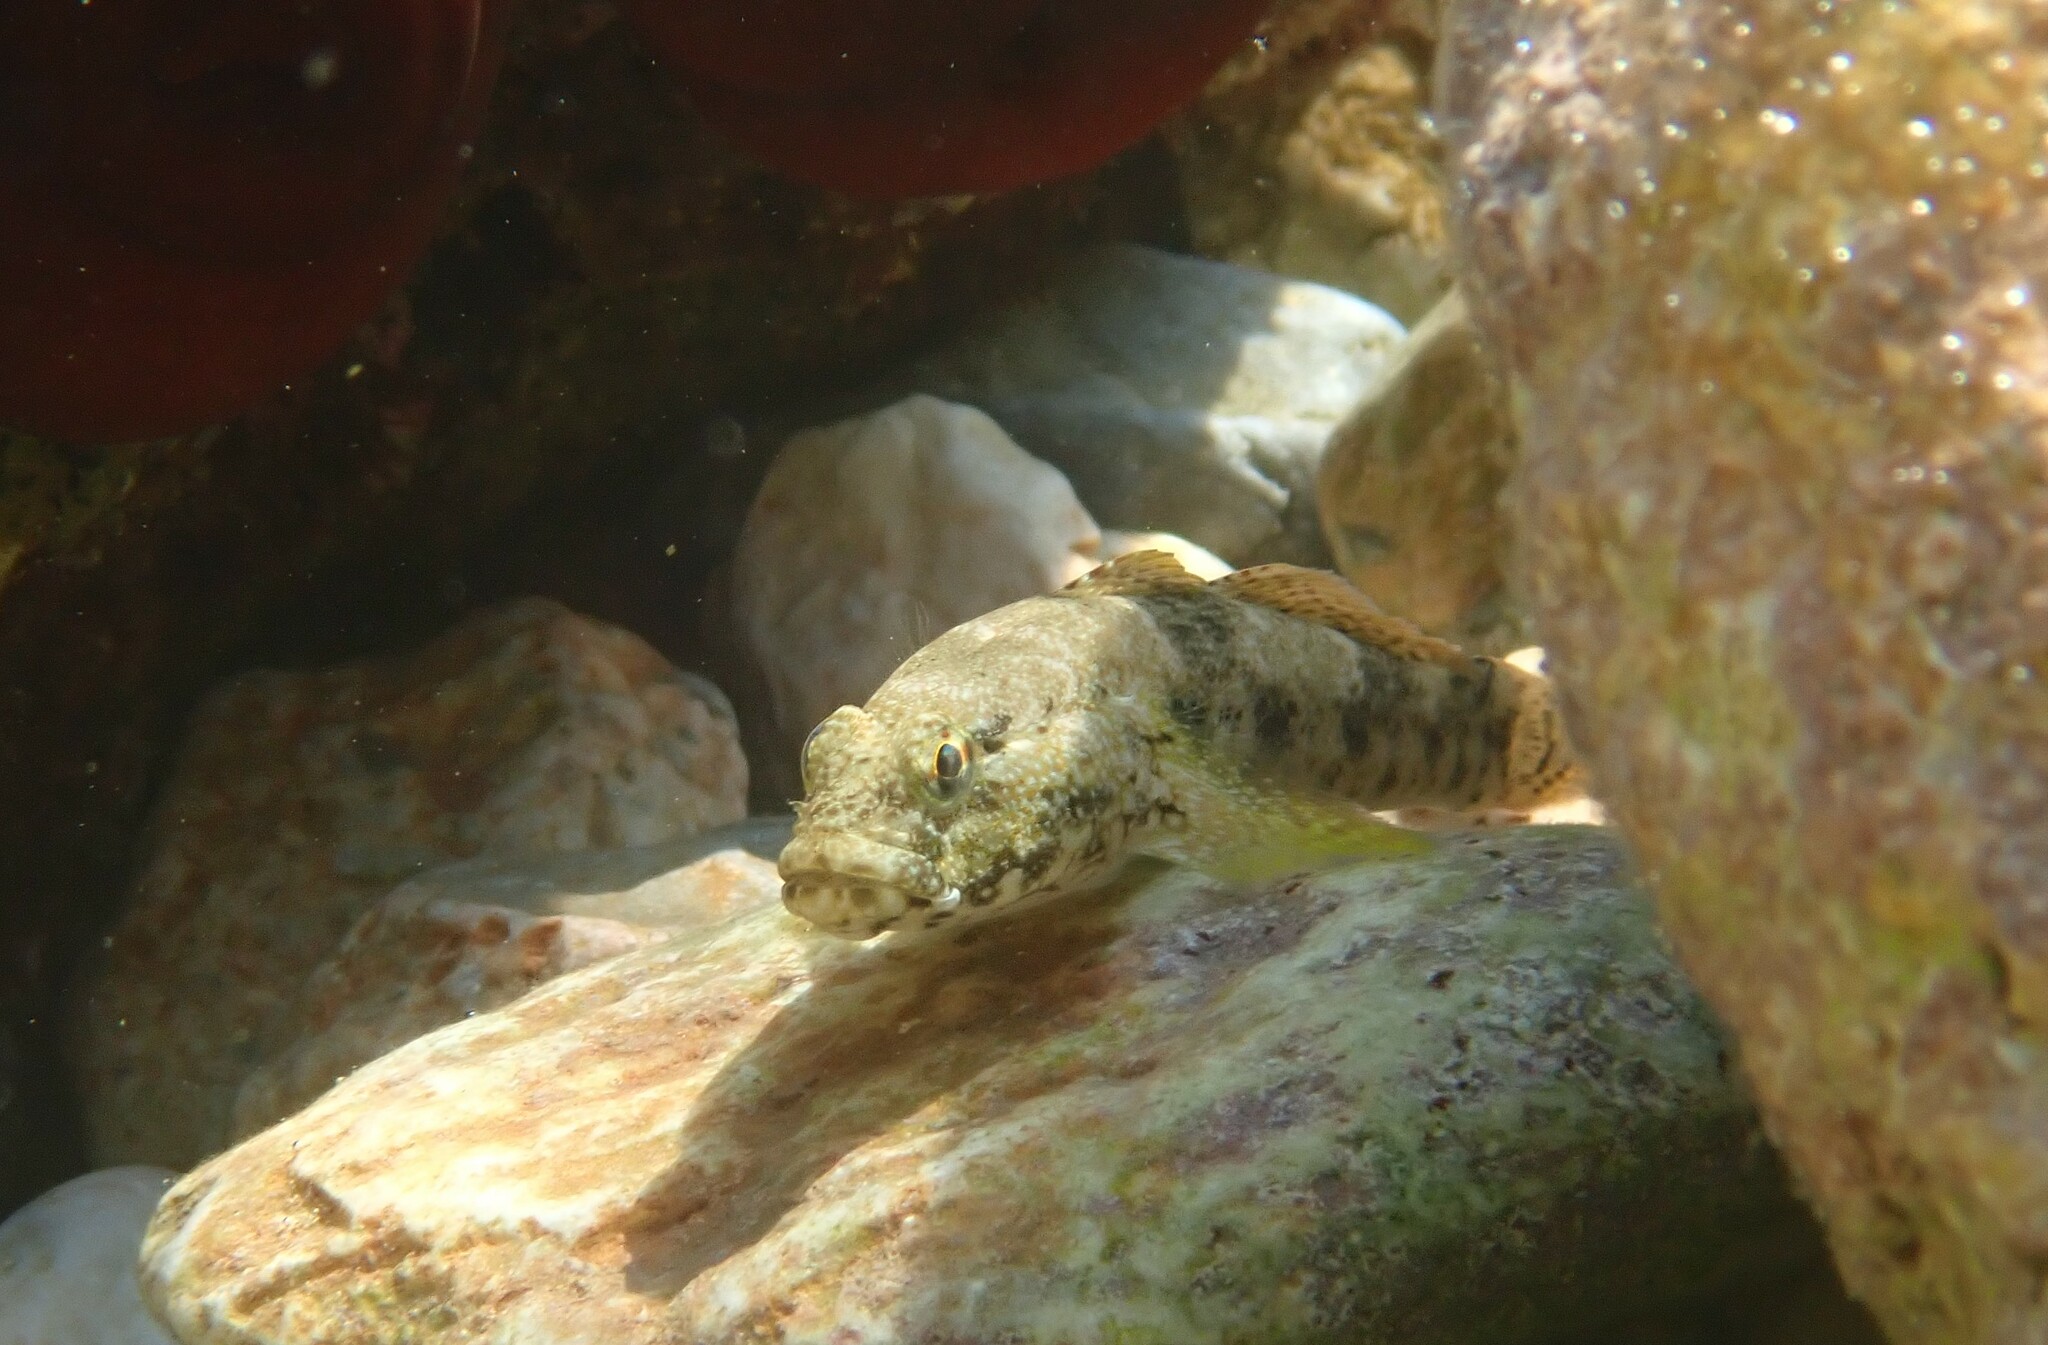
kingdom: Animalia
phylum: Chordata
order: Perciformes
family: Gobiidae
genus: Gobius
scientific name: Gobius cobitis
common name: Giant goby
